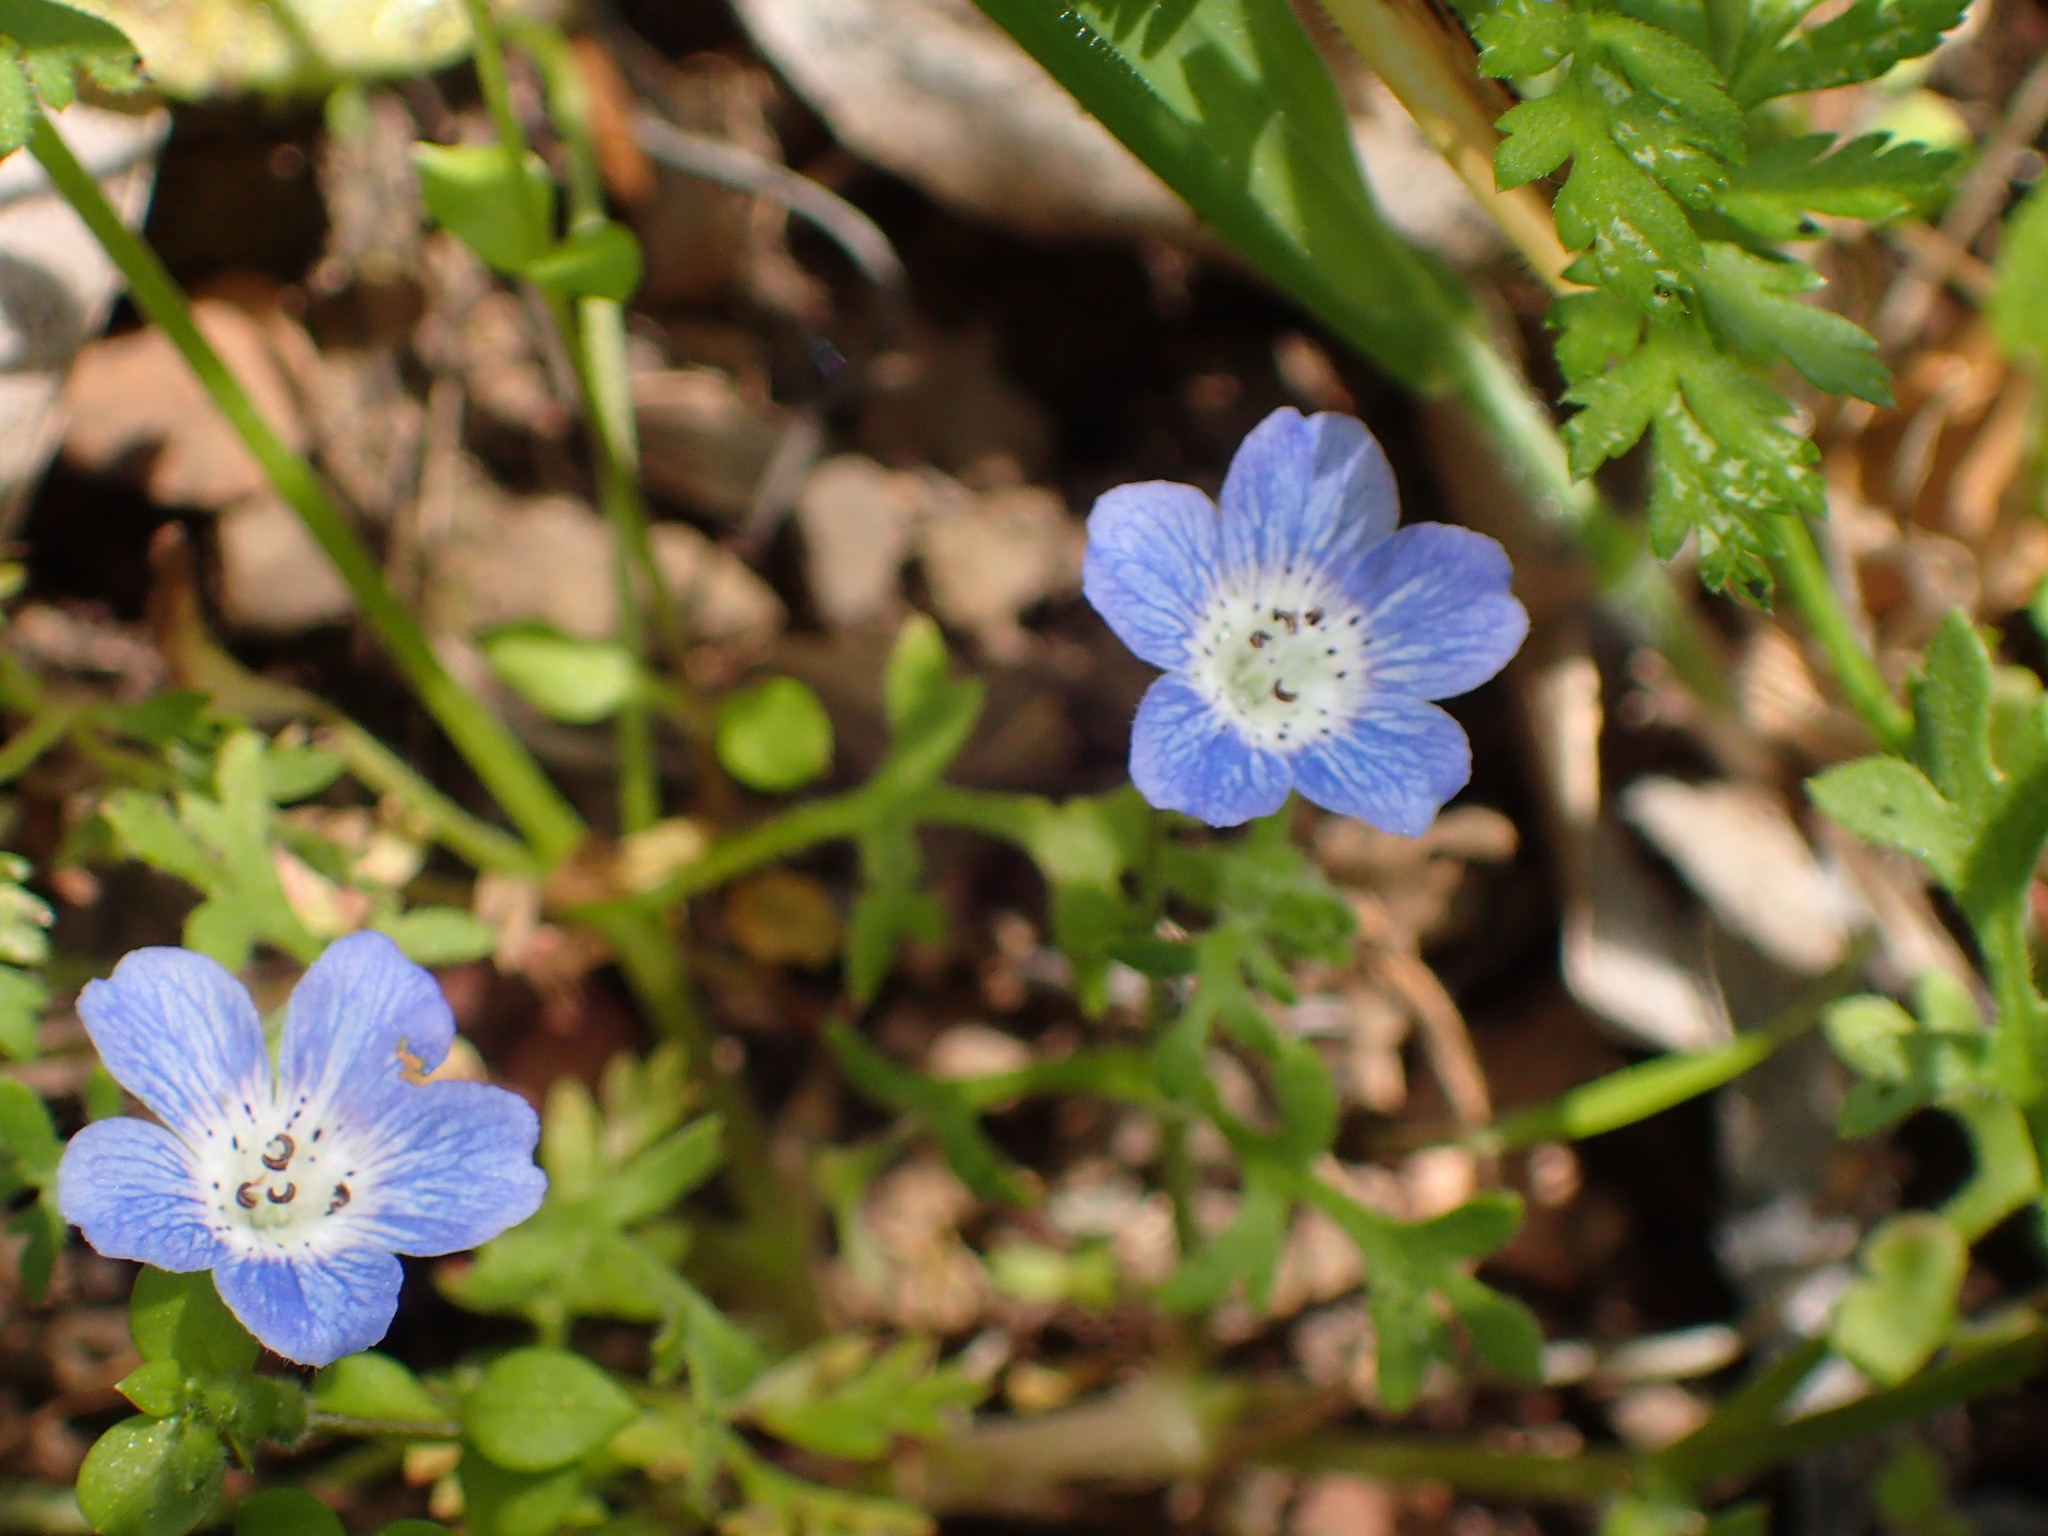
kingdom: Plantae
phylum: Tracheophyta
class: Magnoliopsida
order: Boraginales
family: Hydrophyllaceae
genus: Nemophila
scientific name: Nemophila menziesii
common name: Baby's-blue-eyes
